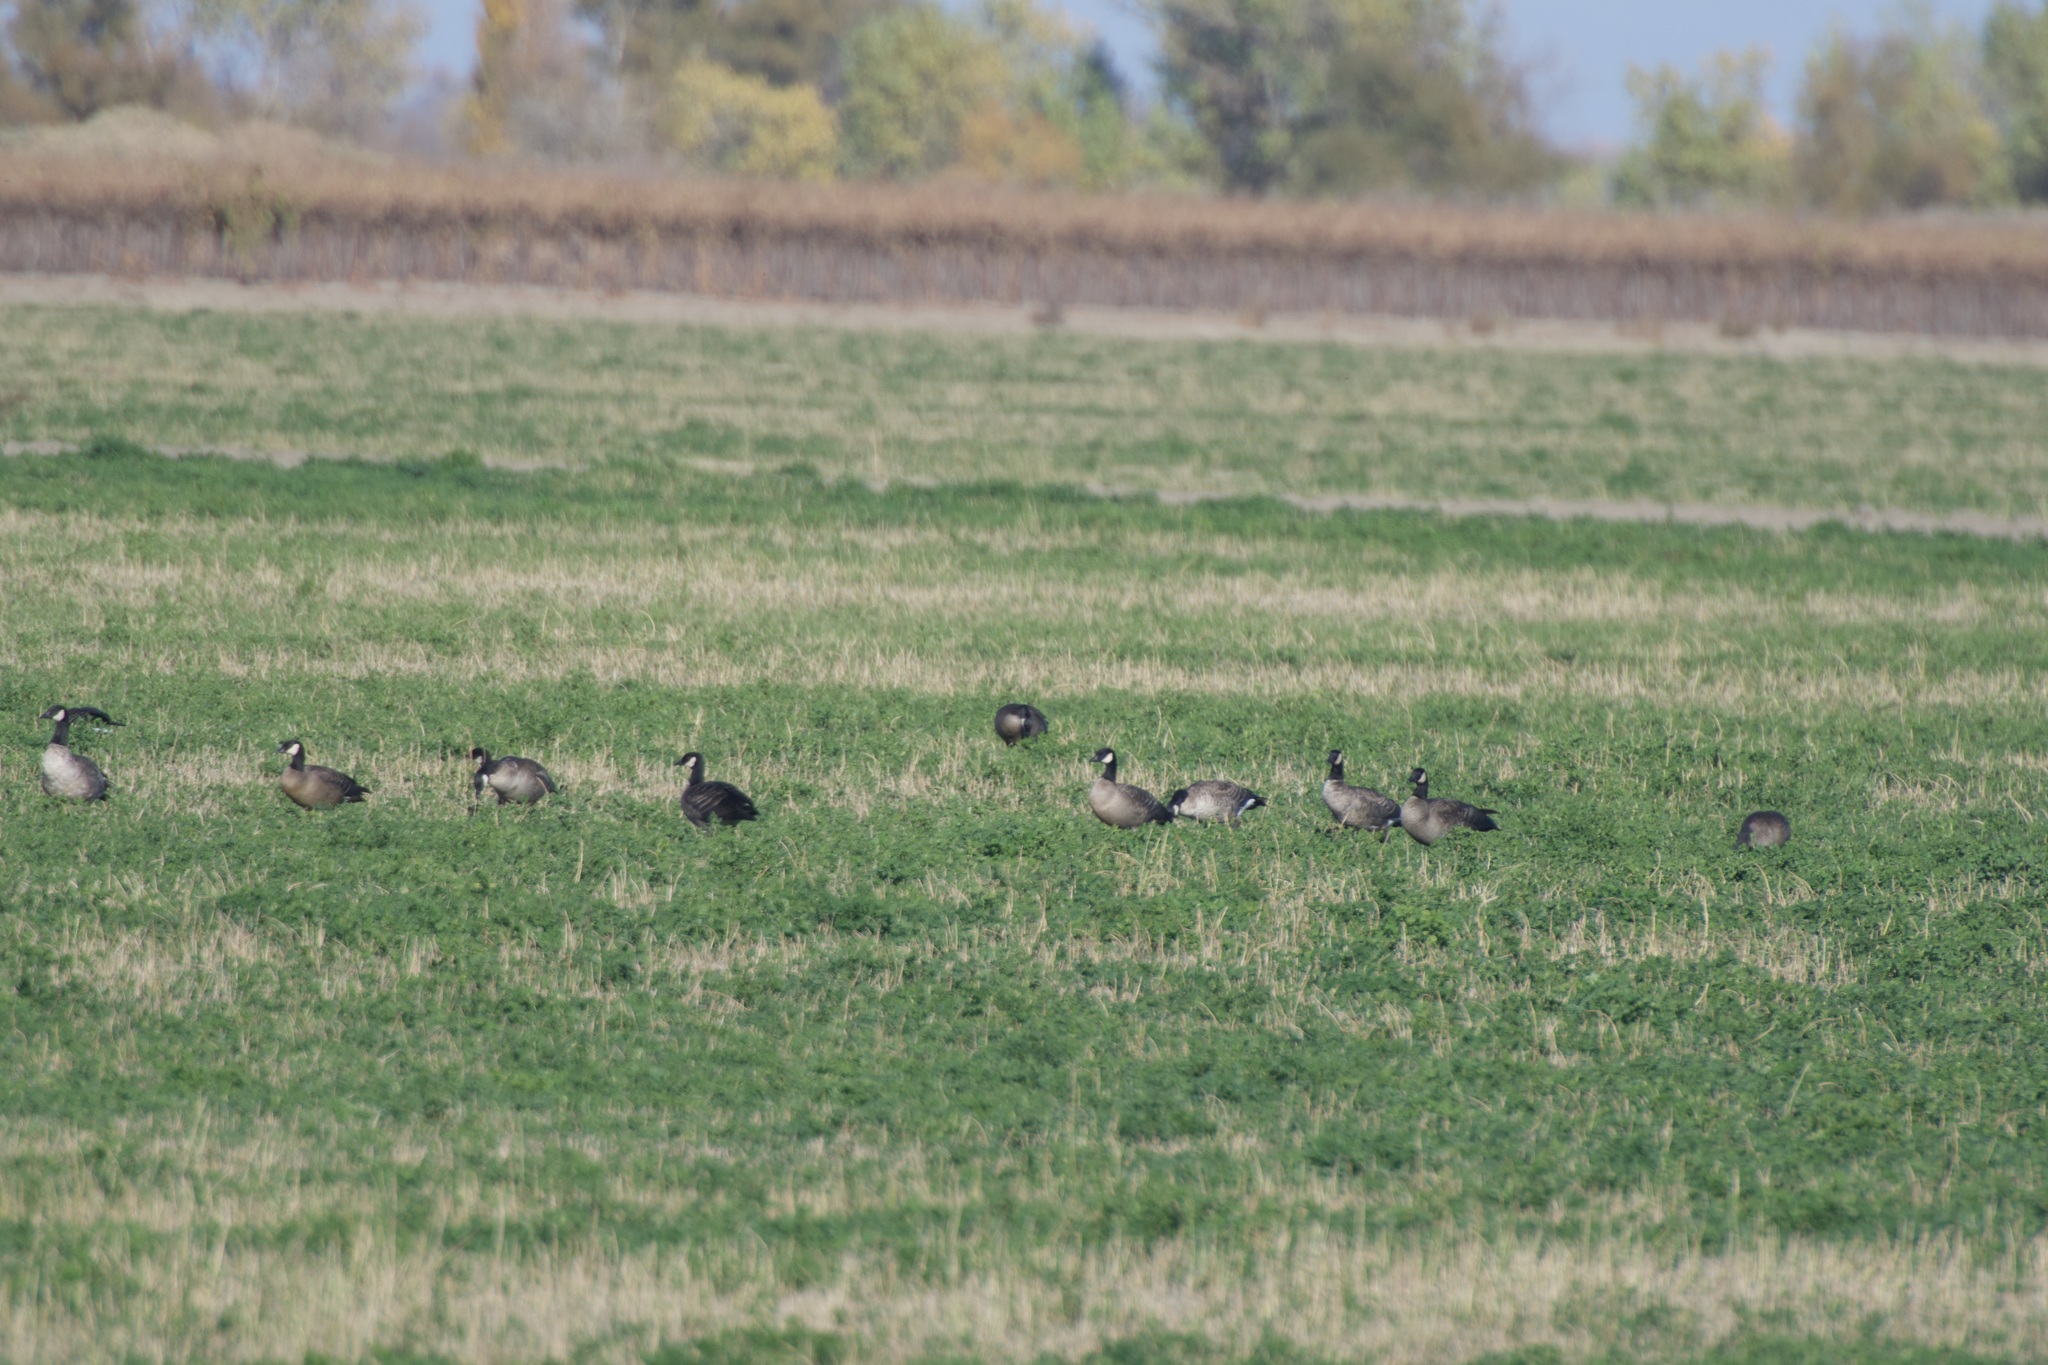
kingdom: Animalia
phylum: Chordata
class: Aves
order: Anseriformes
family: Anatidae
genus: Branta
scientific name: Branta hutchinsii
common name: Cackling goose
